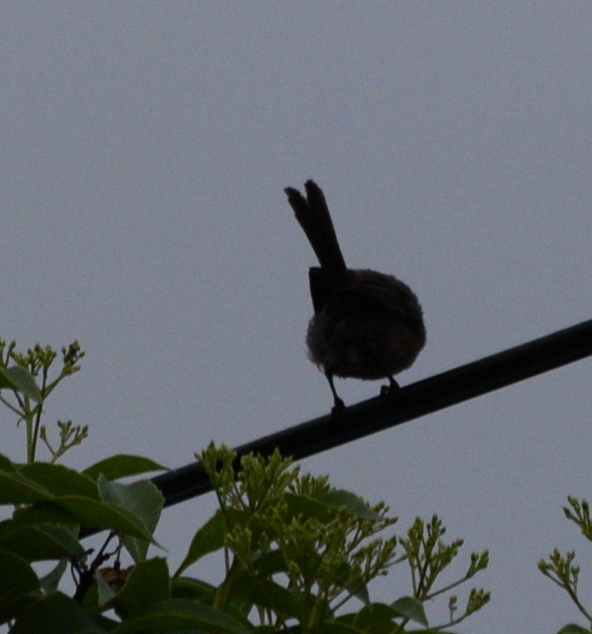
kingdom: Animalia
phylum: Chordata
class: Aves
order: Passeriformes
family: Aegithalidae
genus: Psaltriparus
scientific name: Psaltriparus minimus
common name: American bushtit
